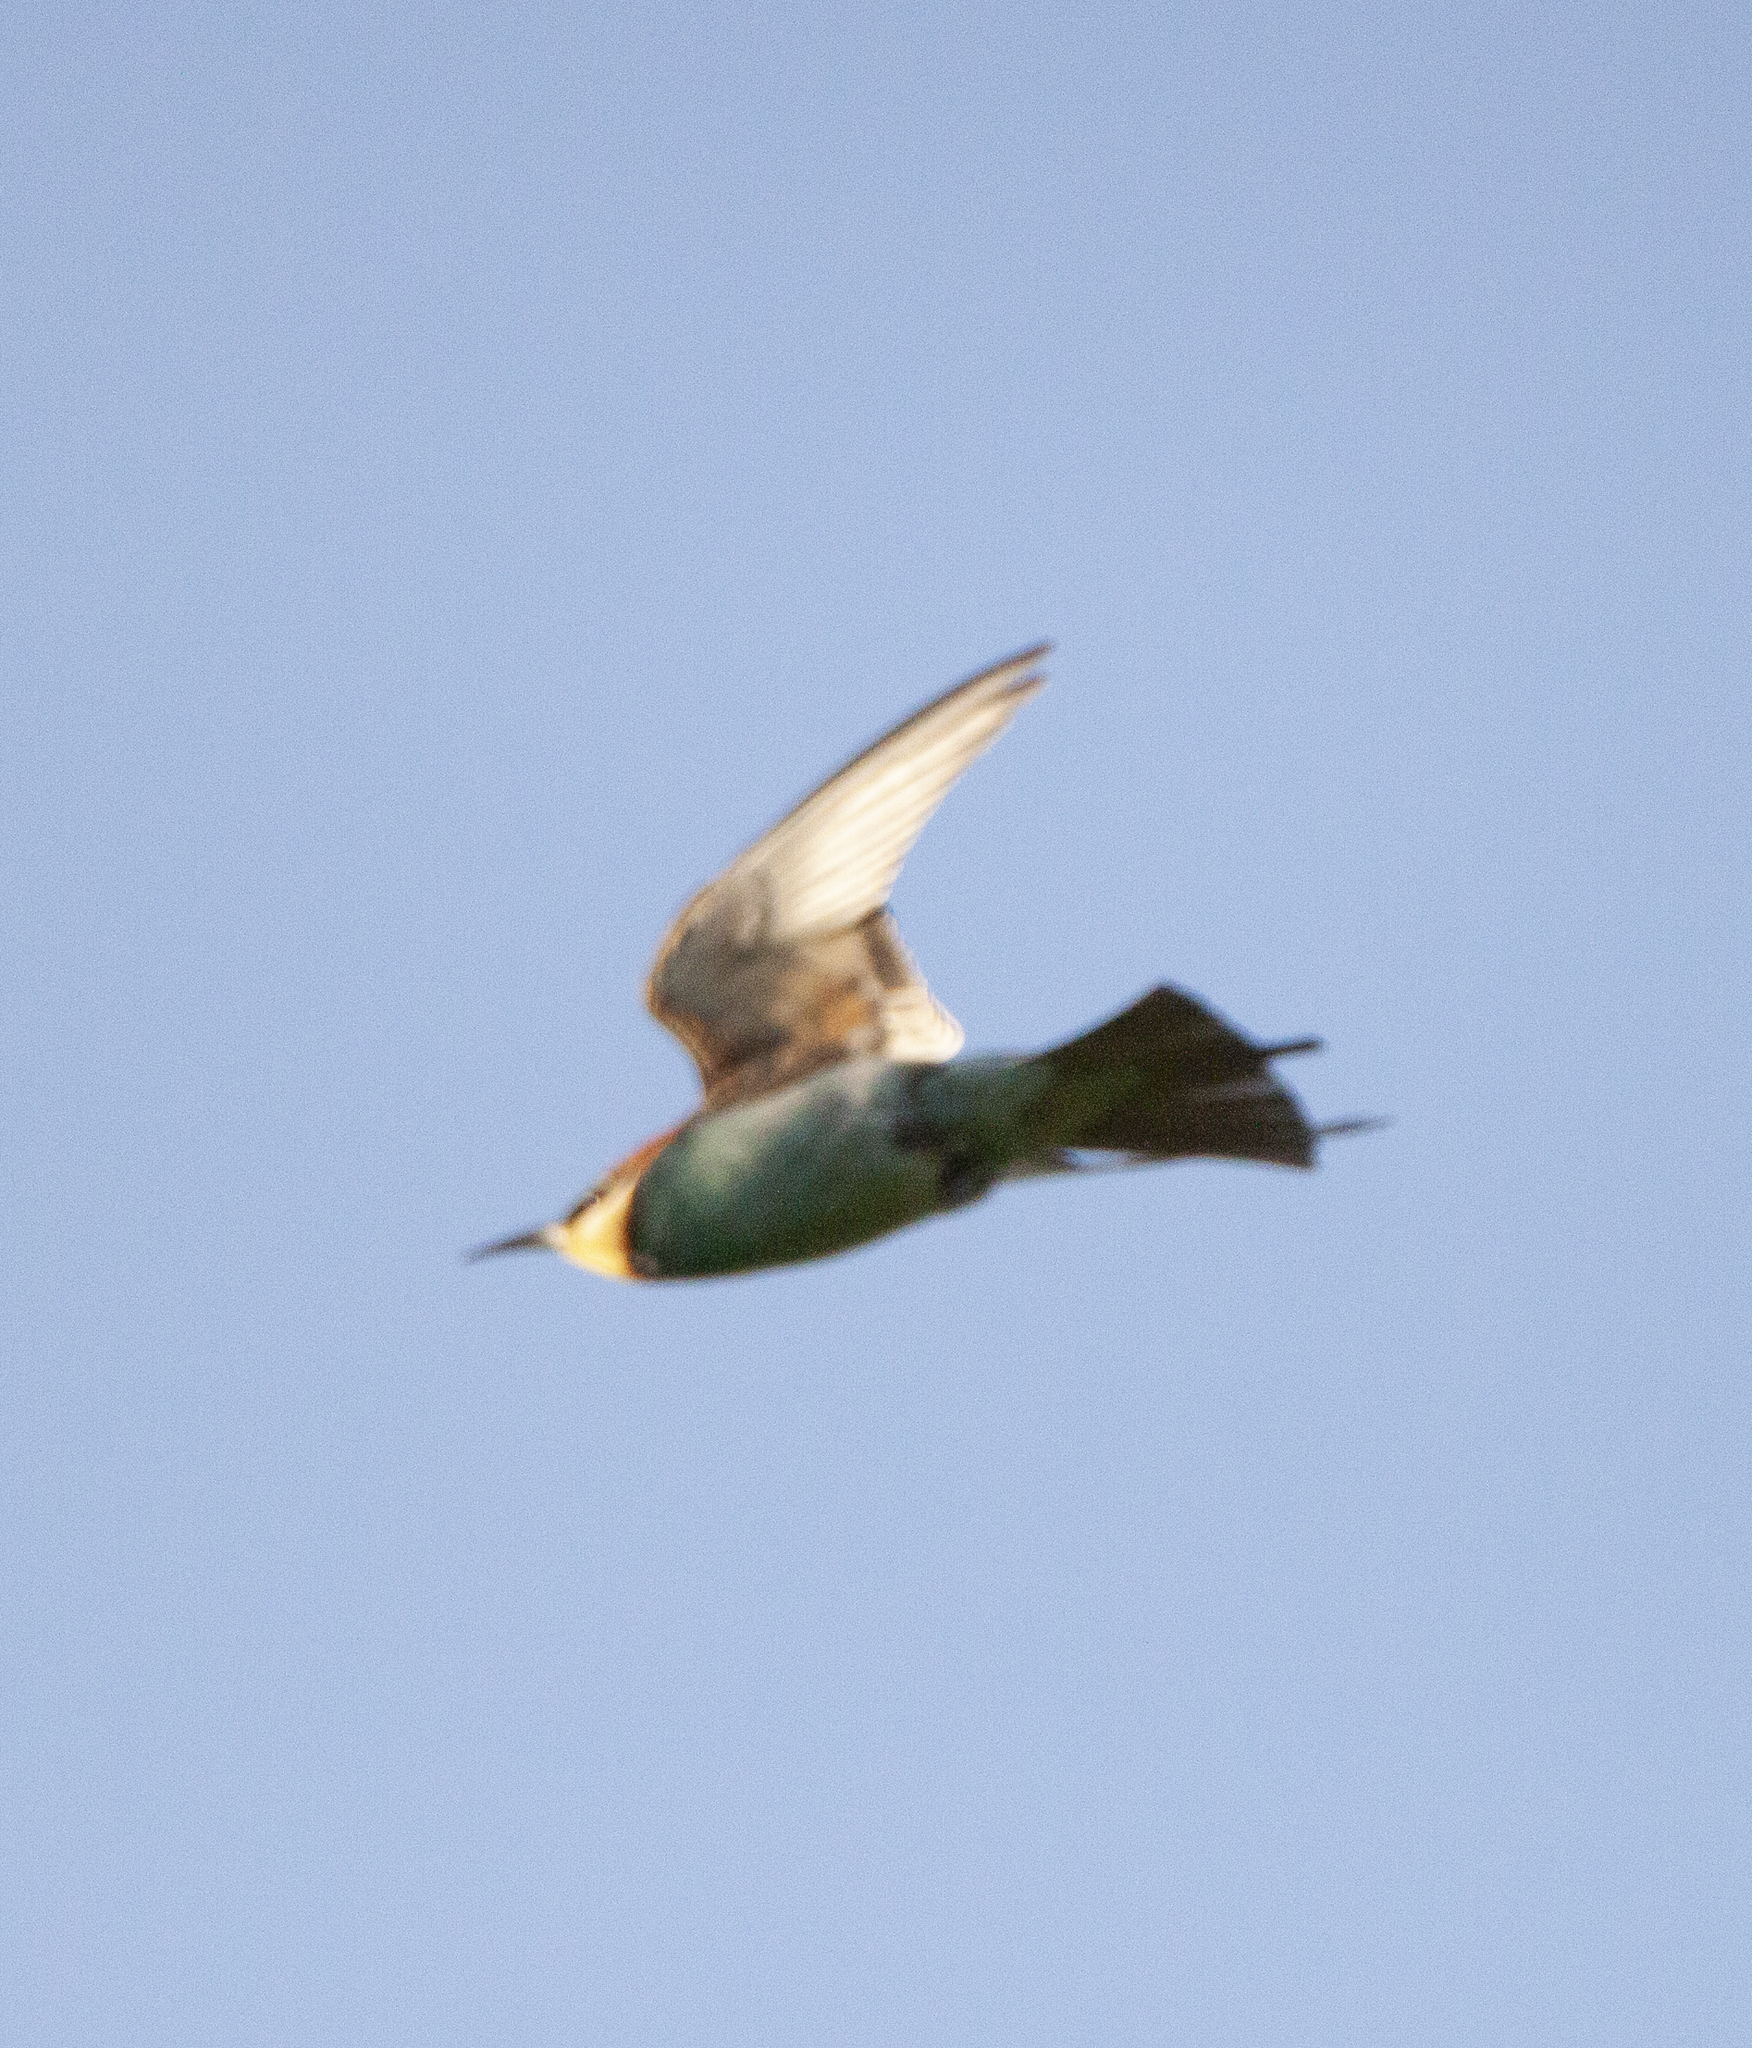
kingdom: Animalia
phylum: Chordata
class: Aves
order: Coraciiformes
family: Meropidae
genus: Merops
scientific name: Merops apiaster
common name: European bee-eater
